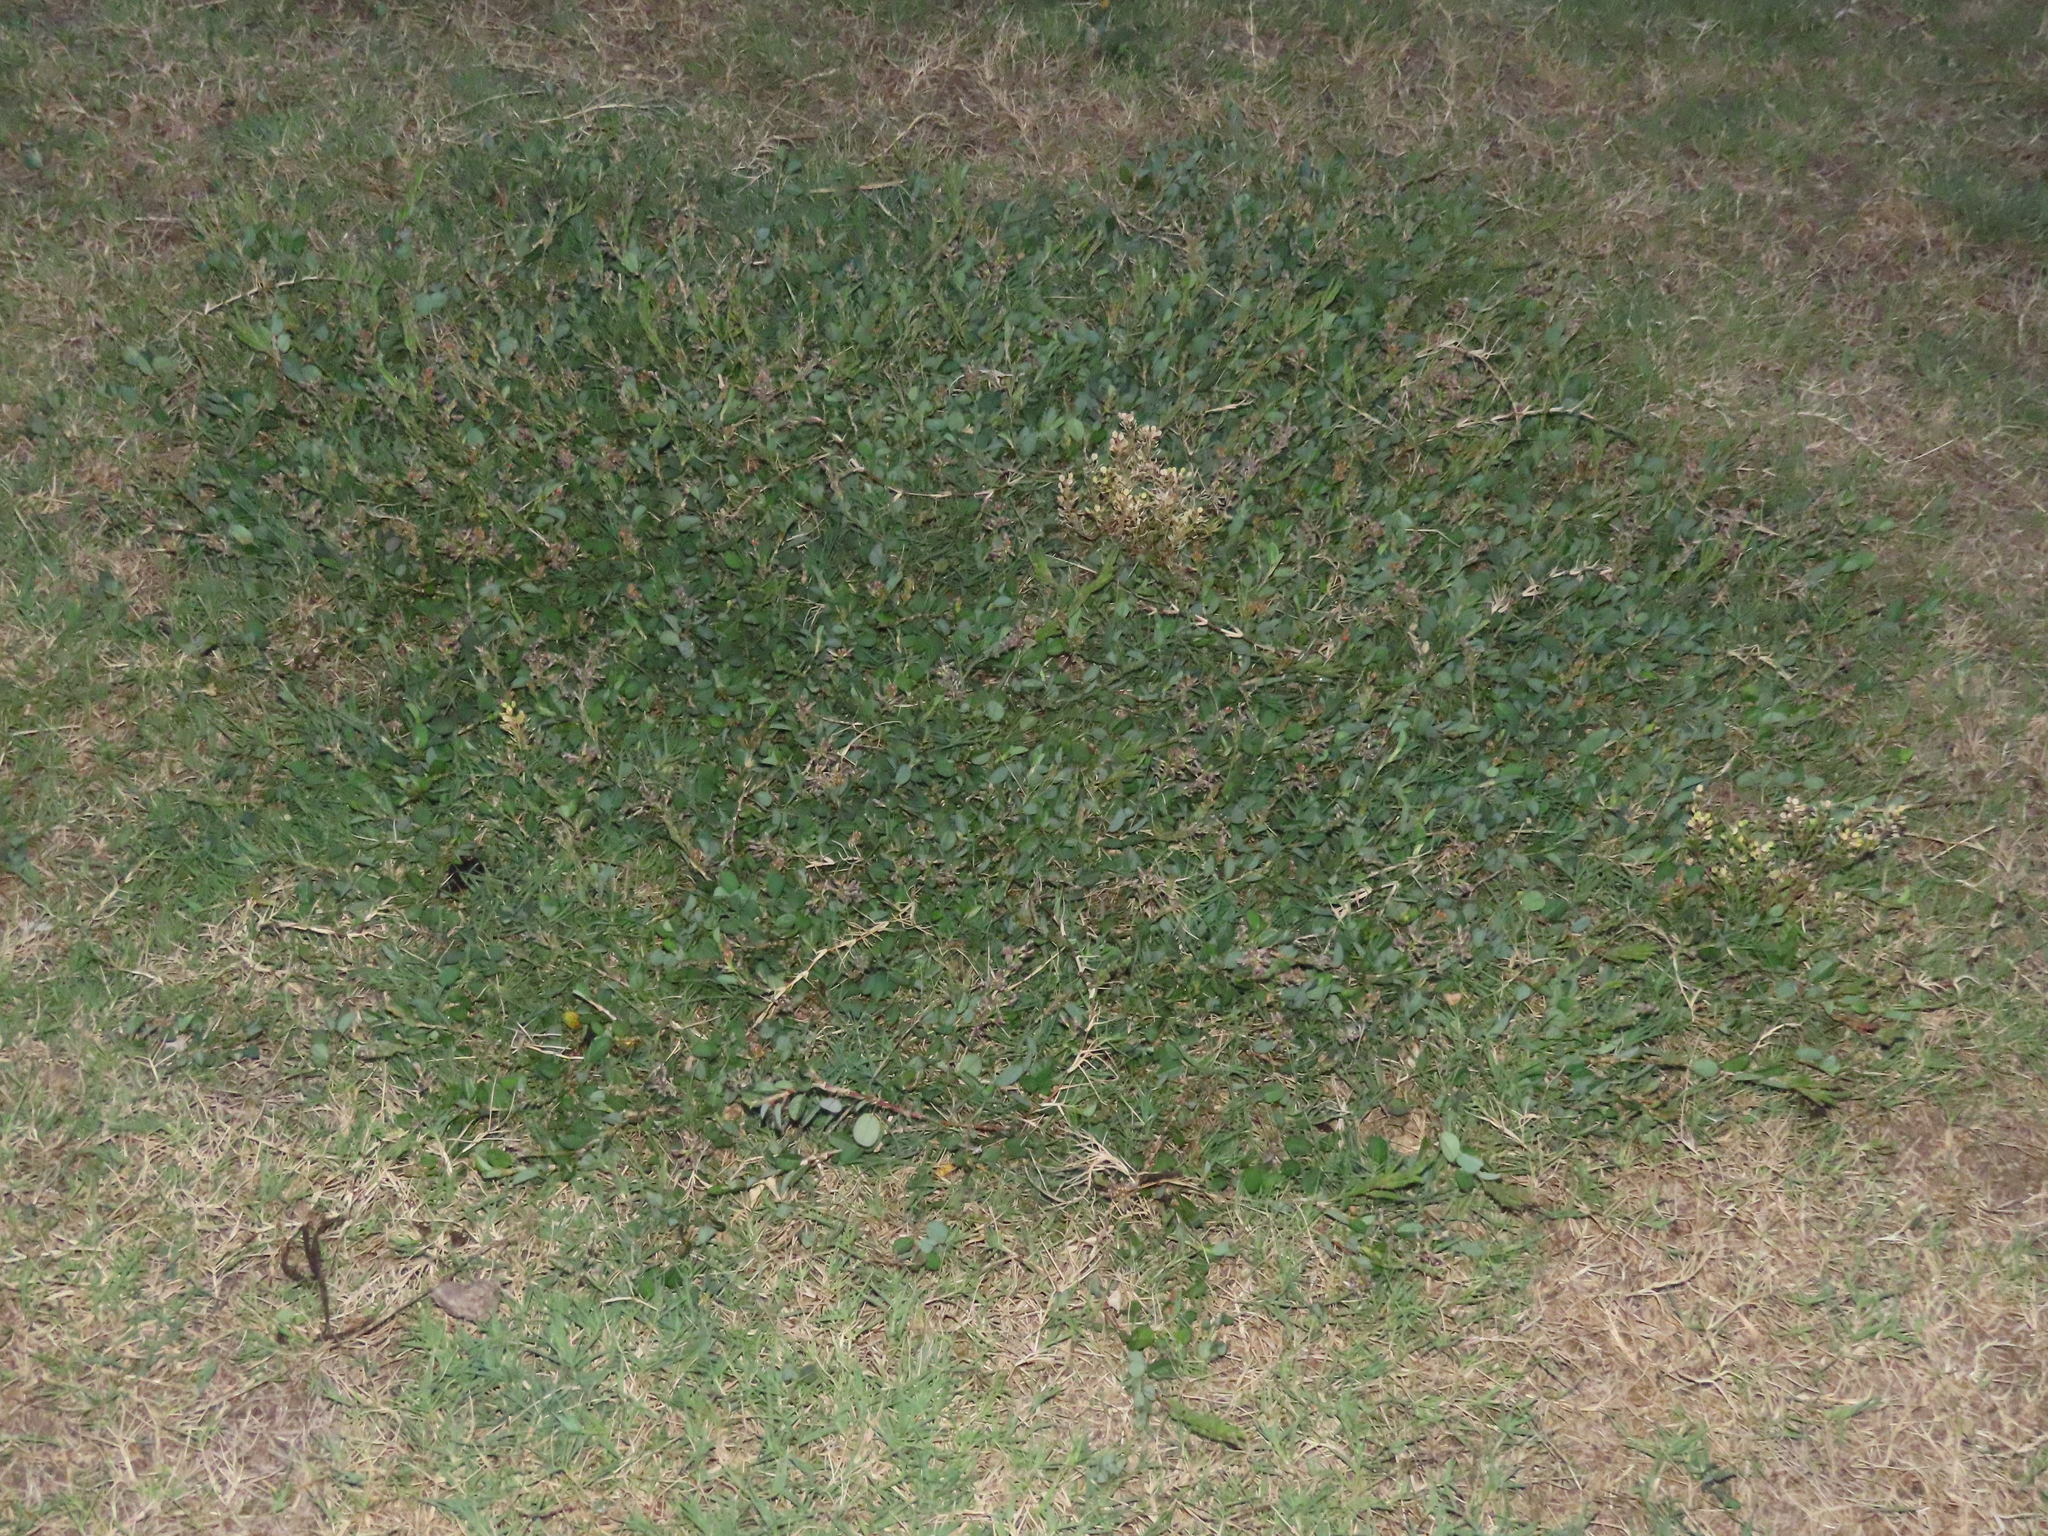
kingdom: Plantae
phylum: Tracheophyta
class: Magnoliopsida
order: Fabales
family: Fabaceae
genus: Alysicarpus
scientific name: Alysicarpus vaginalis
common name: White moneywort
